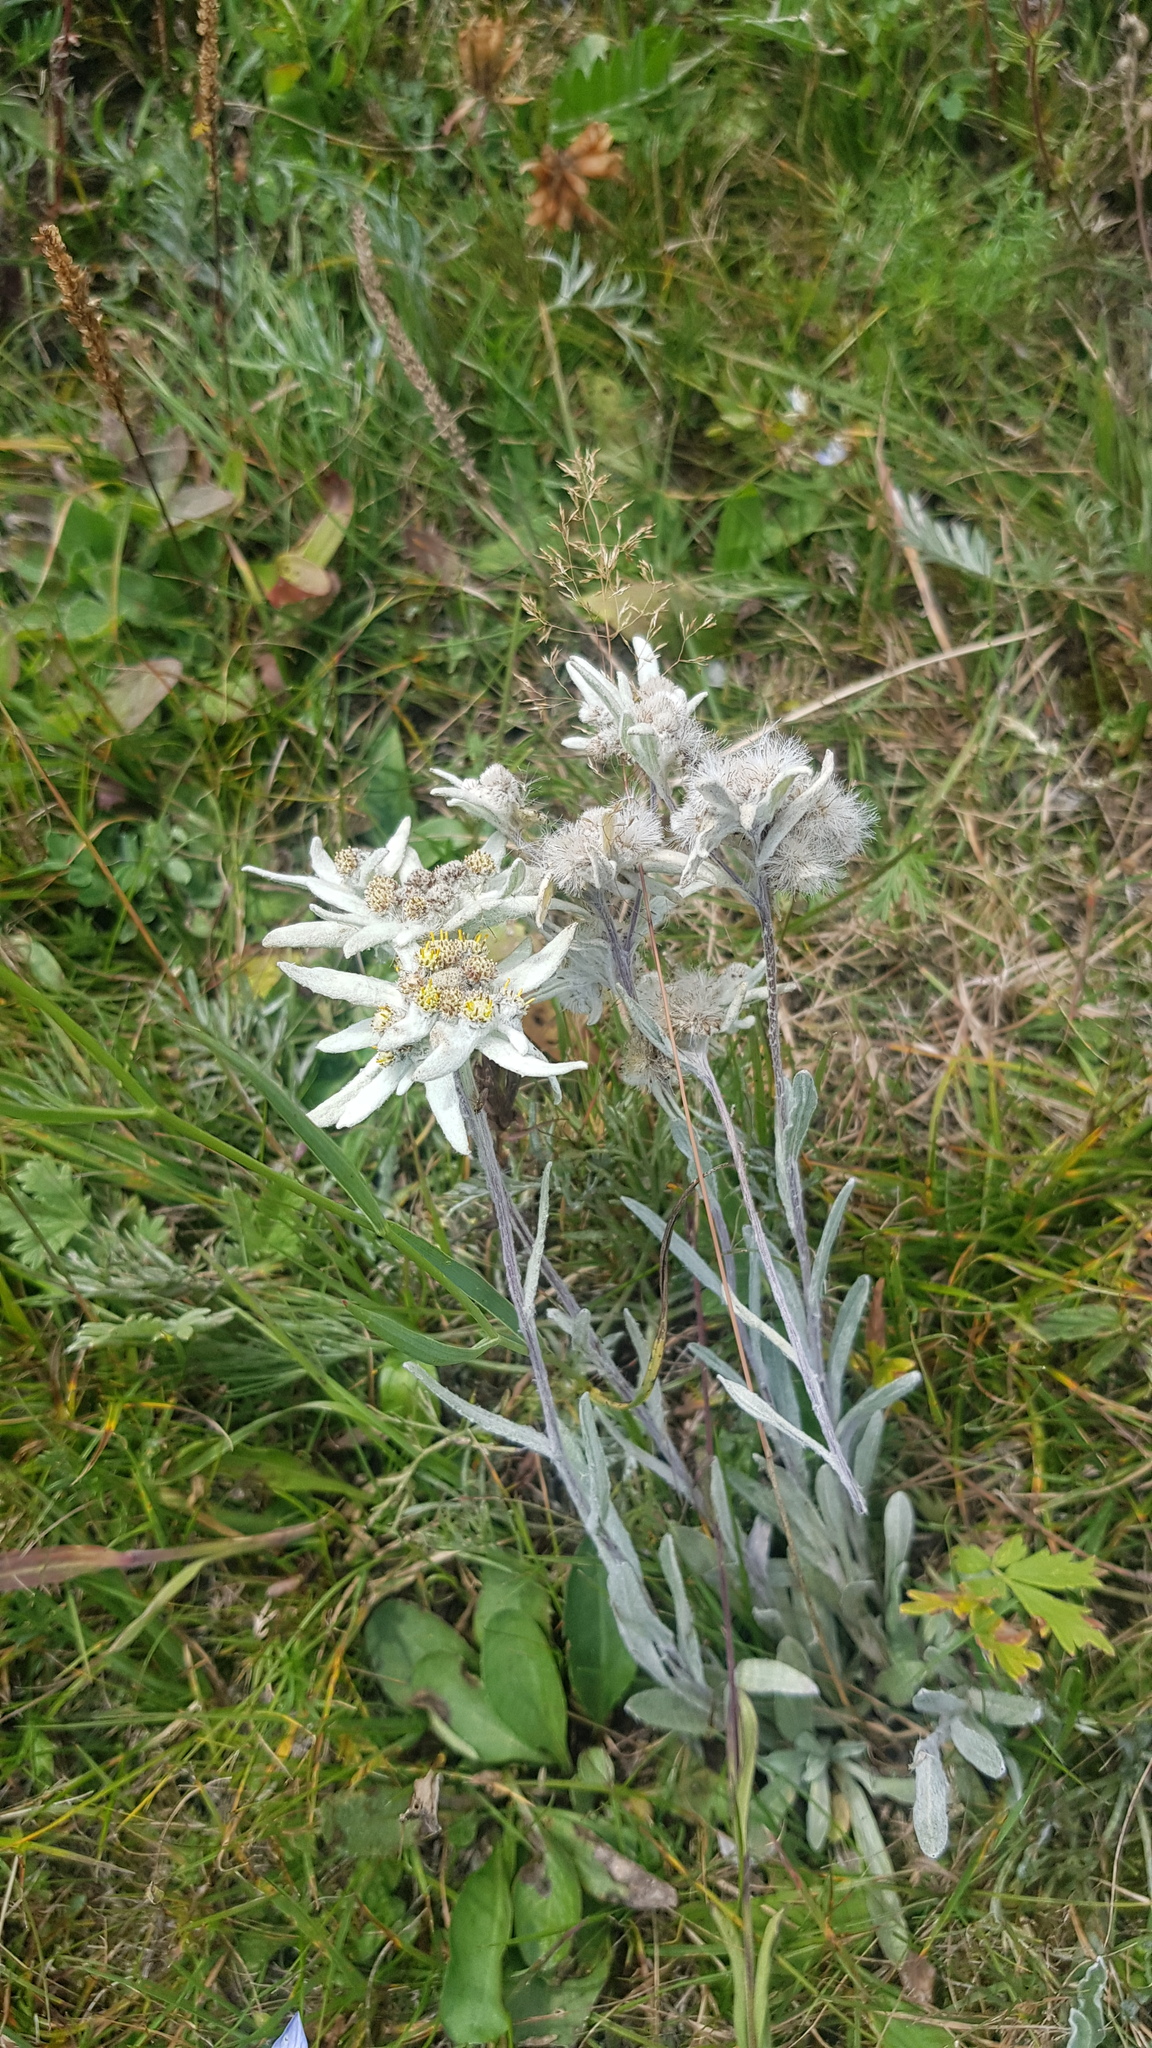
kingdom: Plantae
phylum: Tracheophyta
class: Magnoliopsida
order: Asterales
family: Asteraceae
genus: Leontopodium
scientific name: Leontopodium leontopodinum
